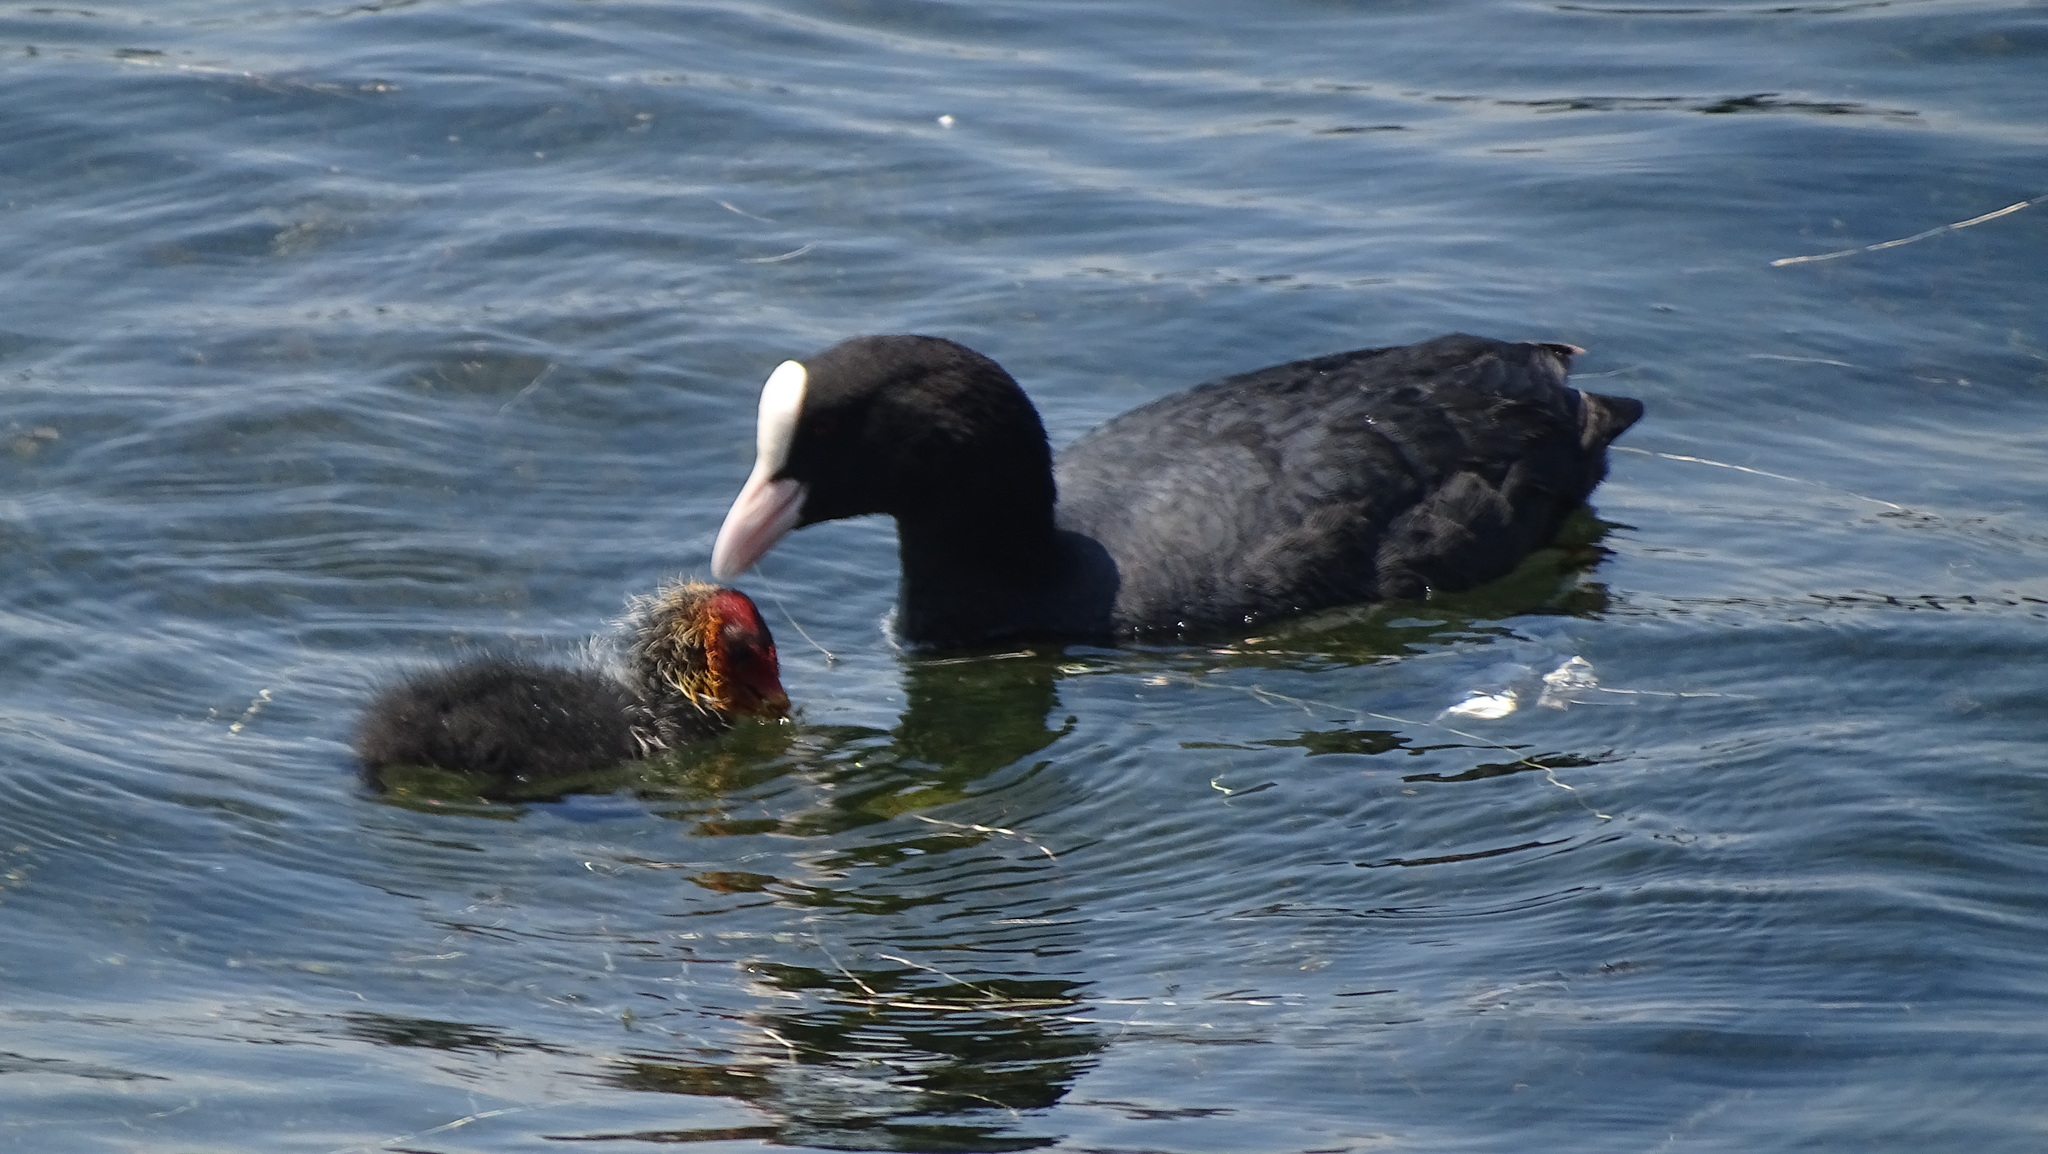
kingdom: Animalia
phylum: Chordata
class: Aves
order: Gruiformes
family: Rallidae
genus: Fulica
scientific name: Fulica atra
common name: Eurasian coot
